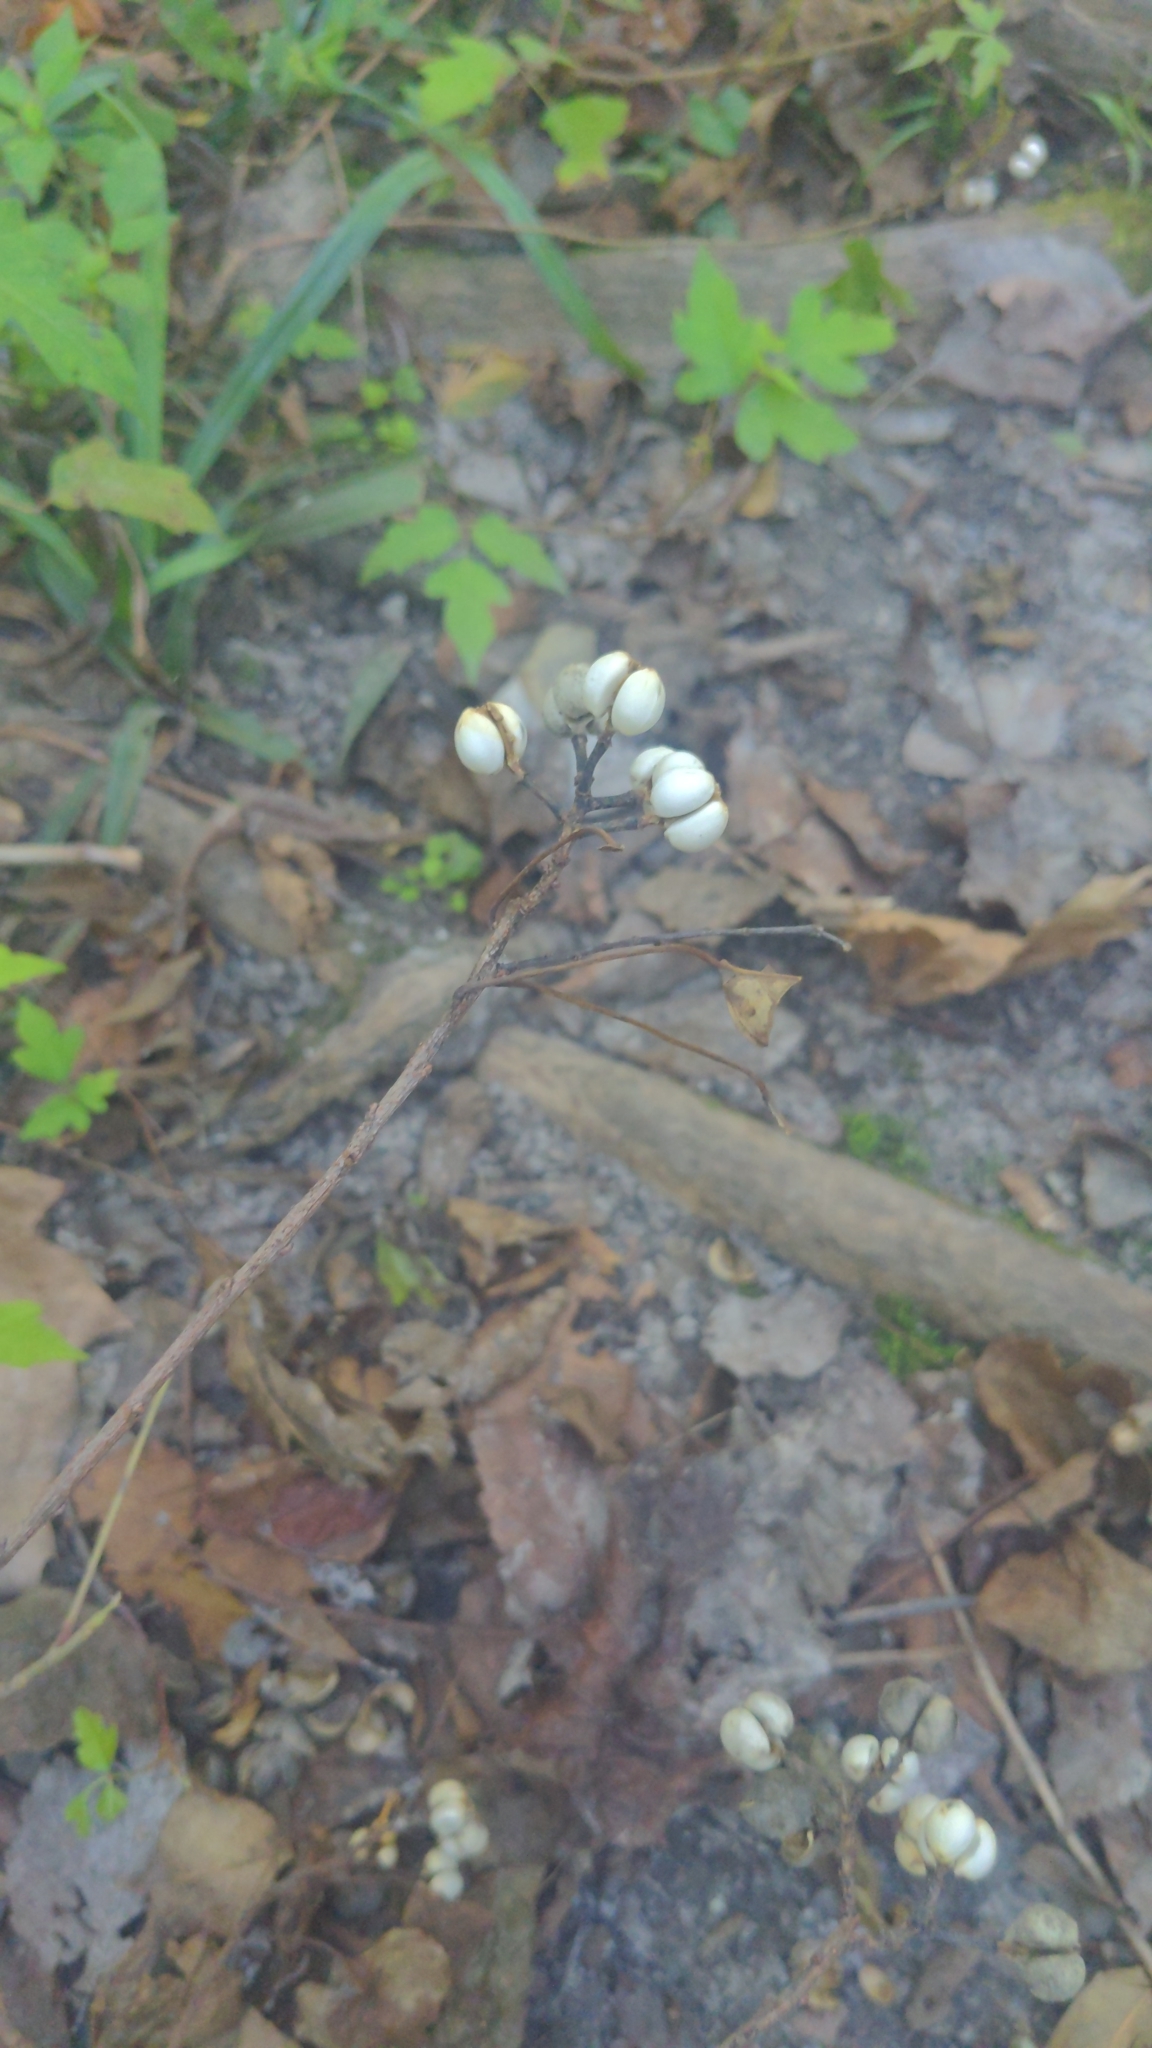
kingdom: Plantae
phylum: Tracheophyta
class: Magnoliopsida
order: Malpighiales
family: Euphorbiaceae
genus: Triadica
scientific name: Triadica sebifera
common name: Chinese tallow
